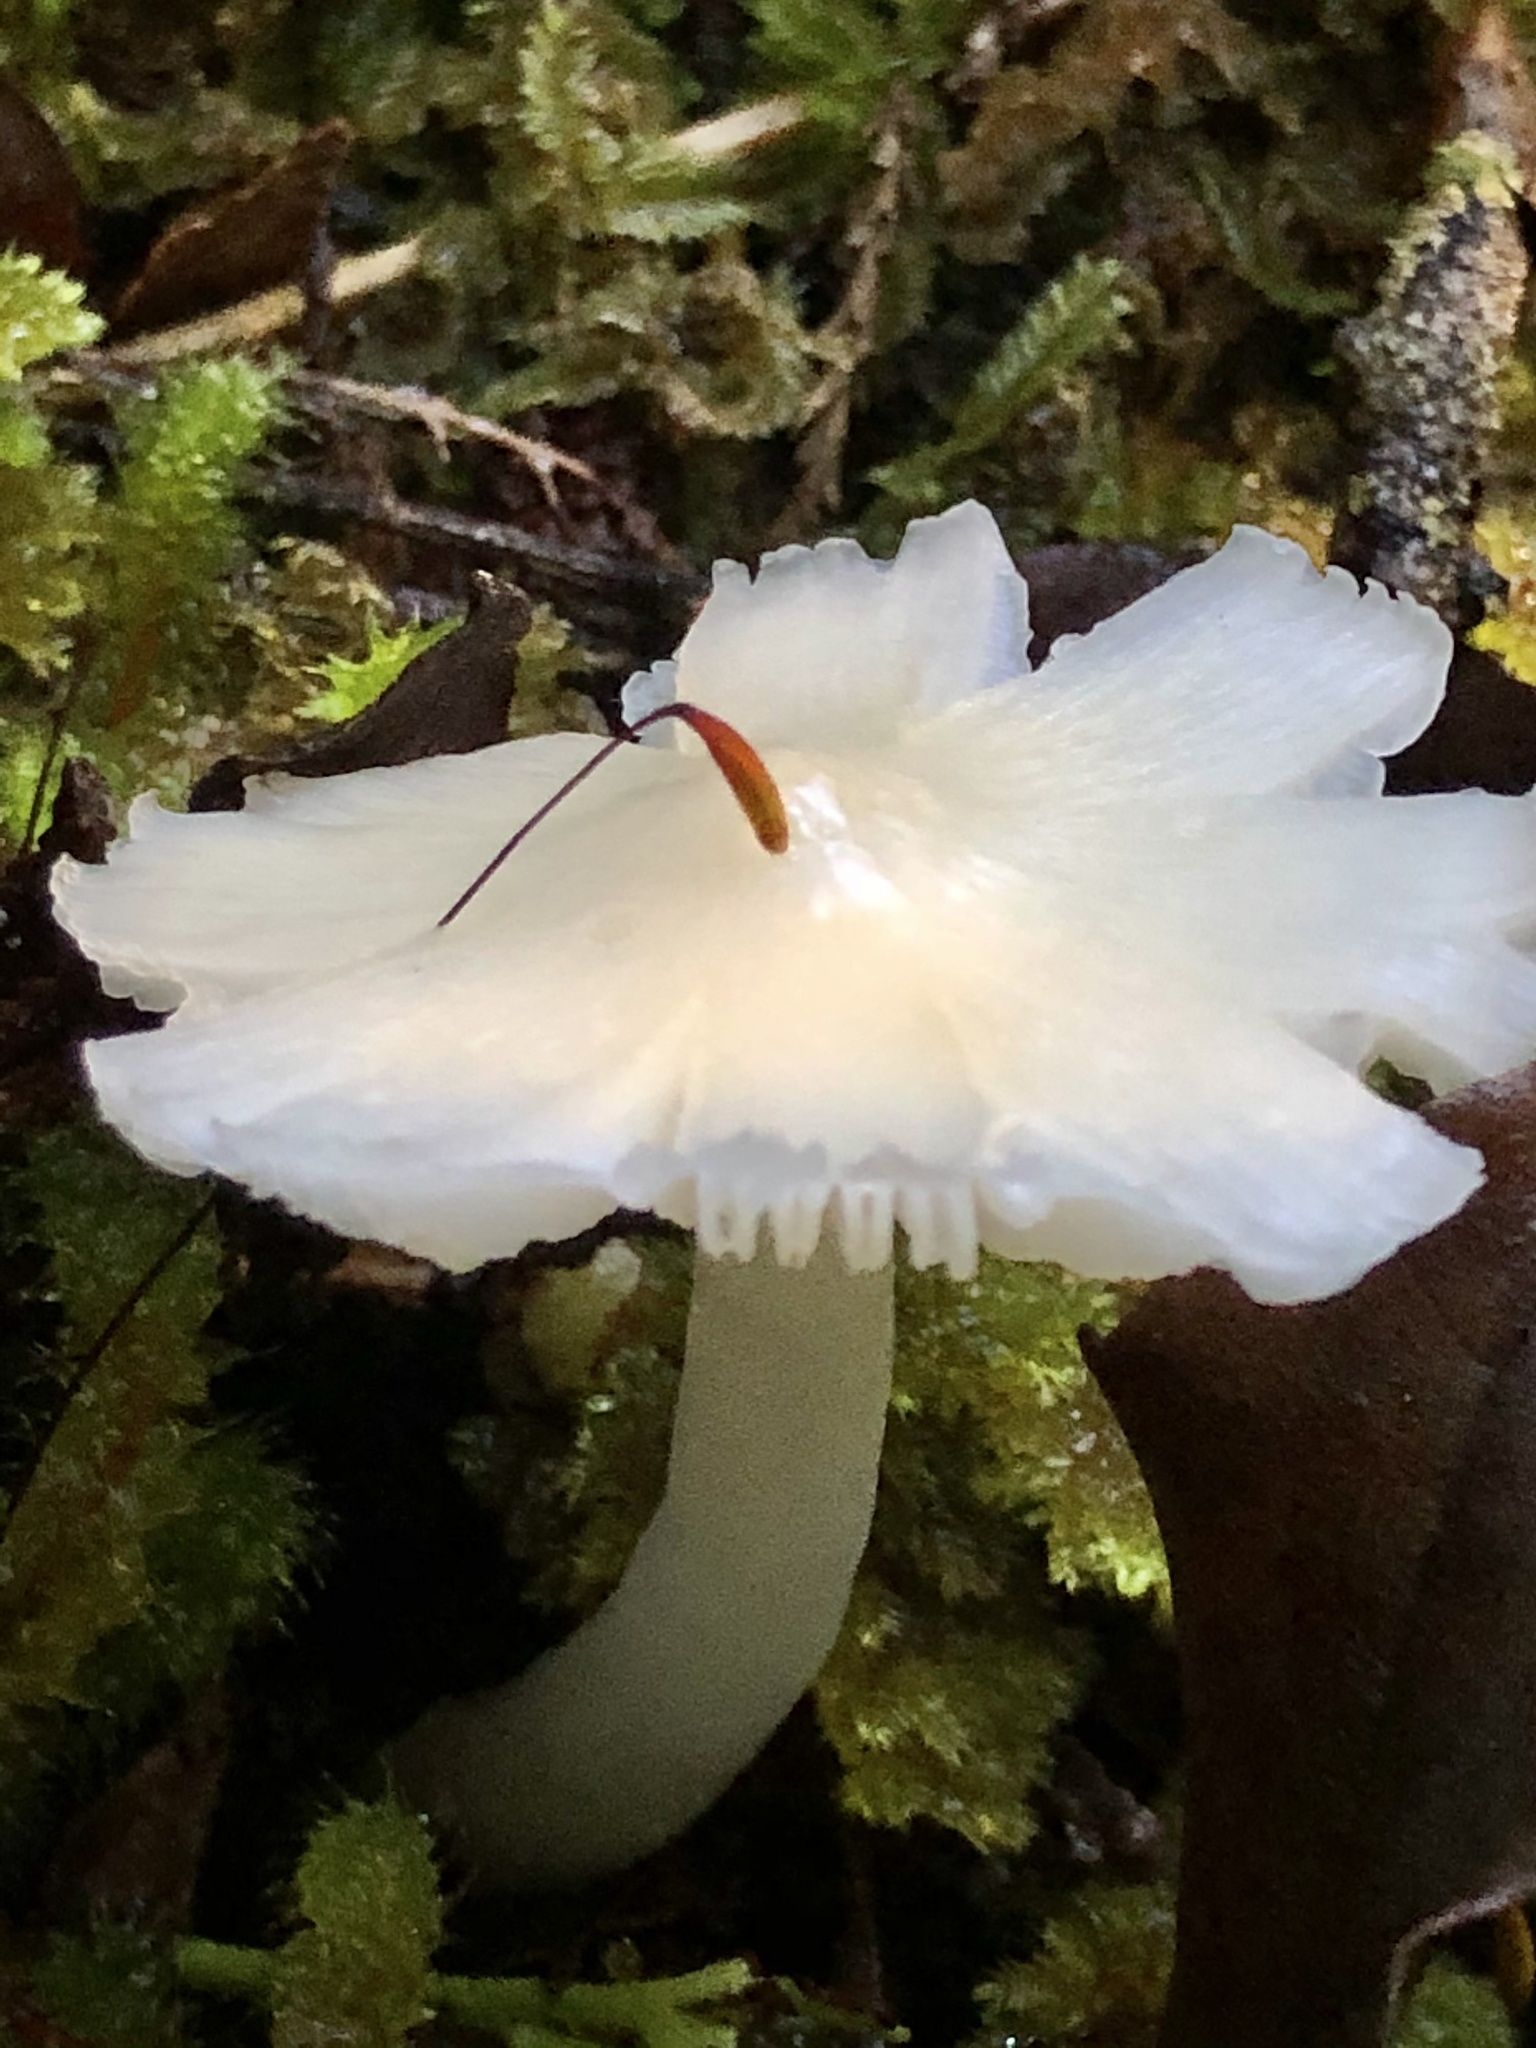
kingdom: Fungi
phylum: Basidiomycota
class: Agaricomycetes
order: Agaricales
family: Hygrophoraceae
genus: Humidicutis
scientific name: Humidicutis mavis
